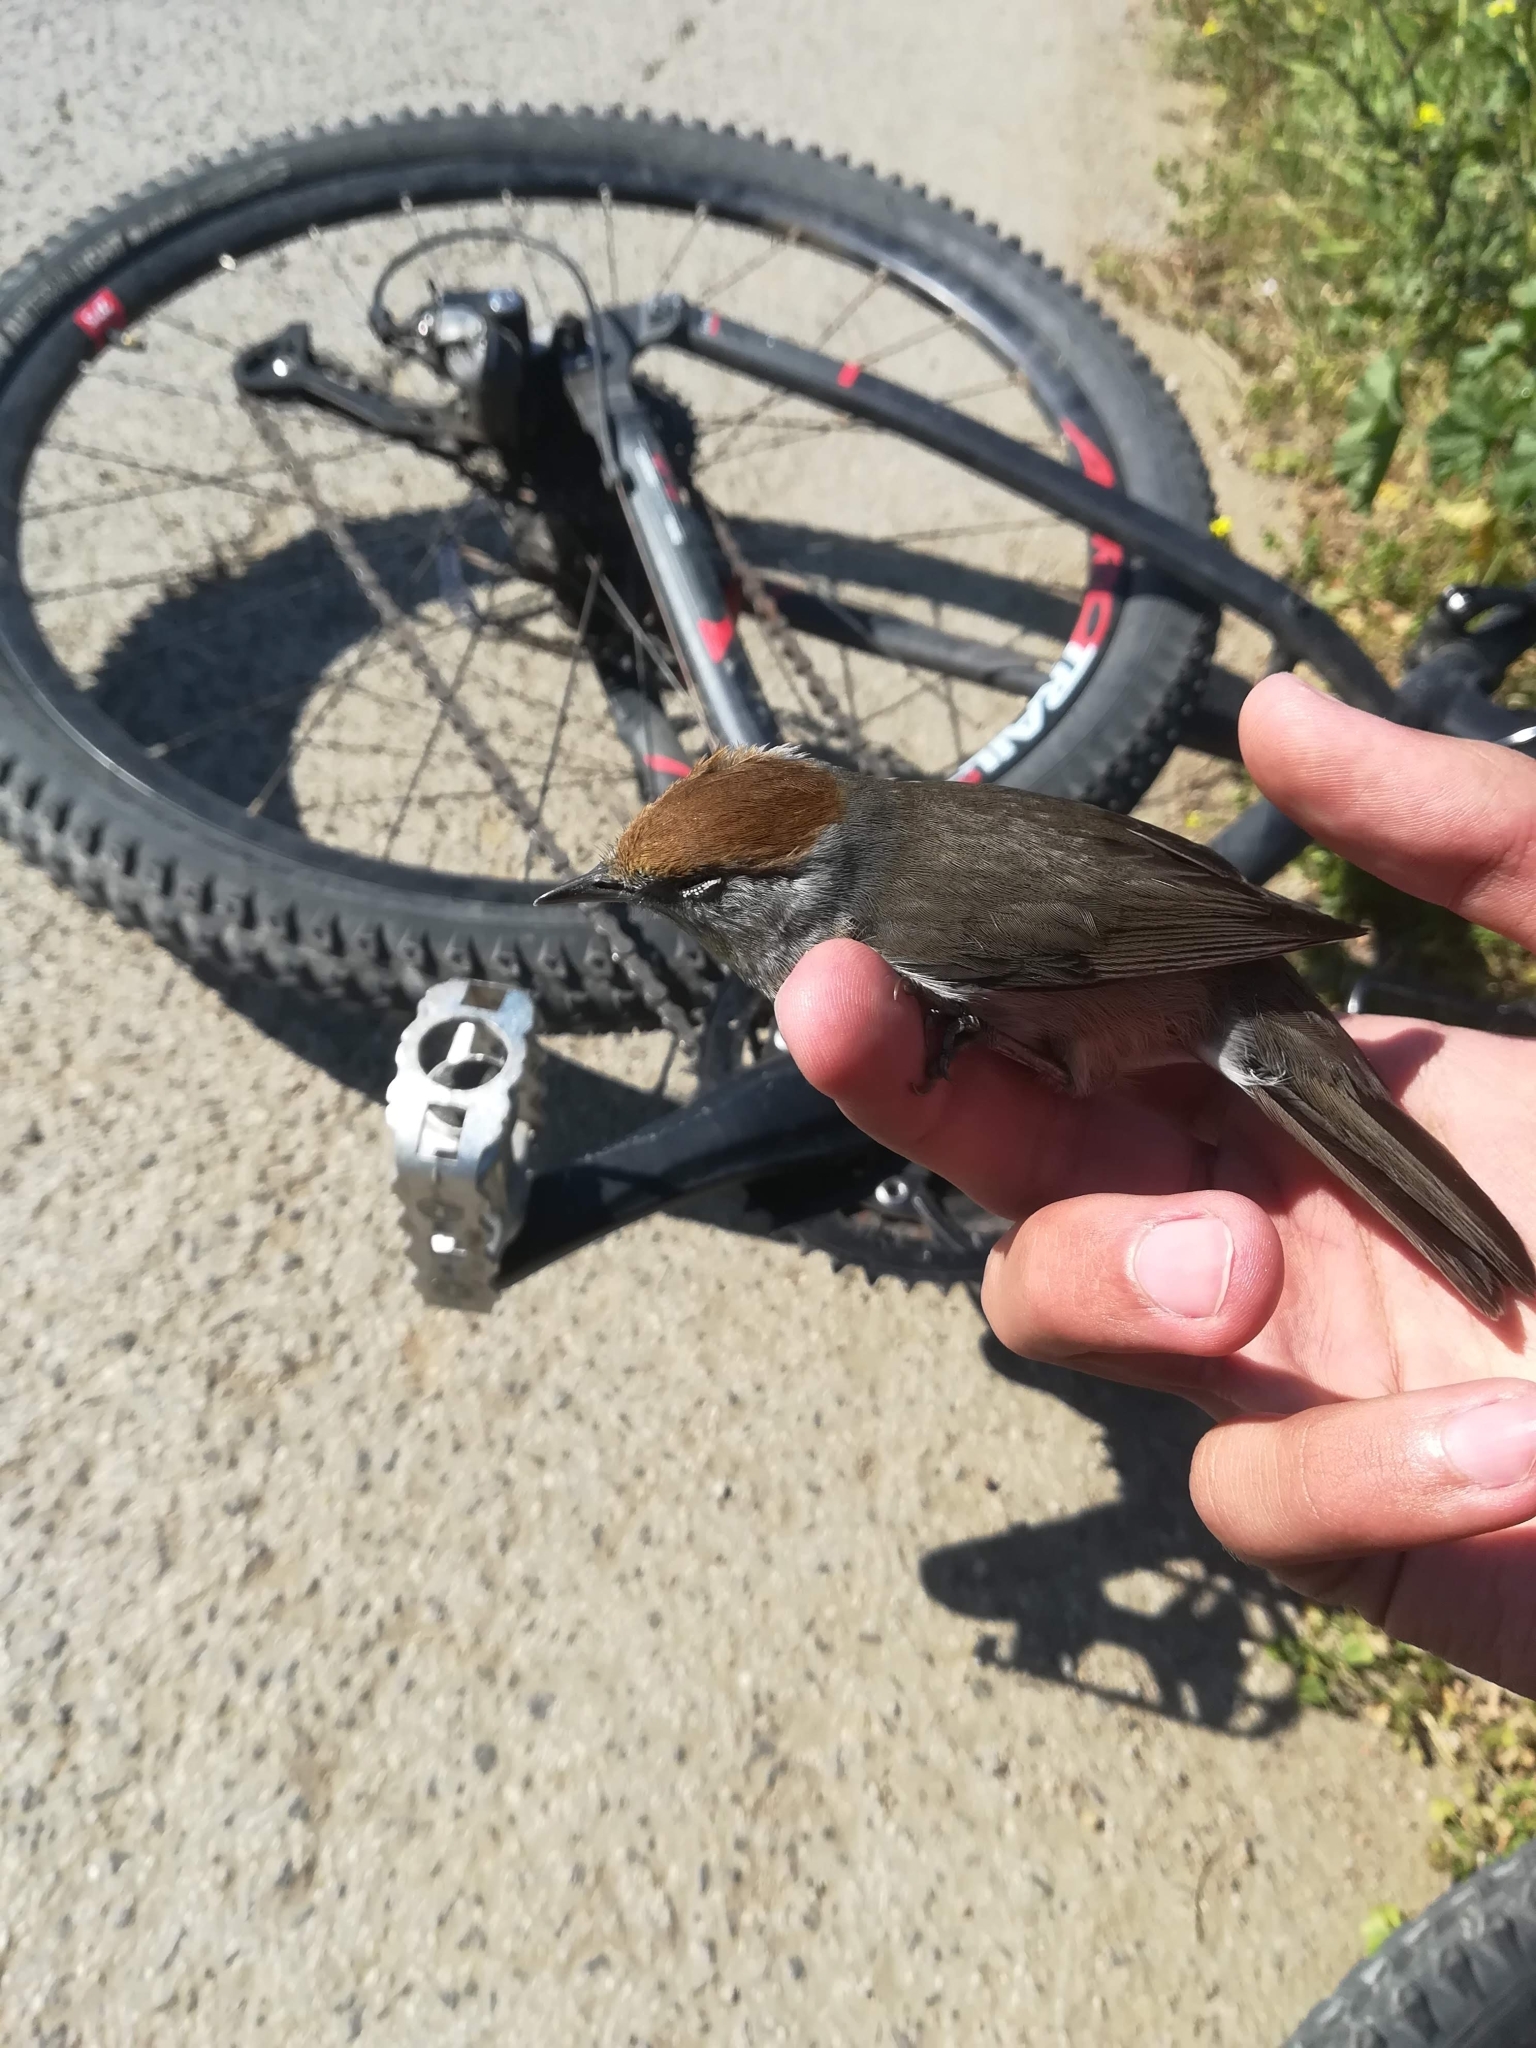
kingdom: Animalia
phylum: Chordata
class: Aves
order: Passeriformes
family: Sylviidae
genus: Sylvia
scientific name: Sylvia atricapilla
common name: Eurasian blackcap
